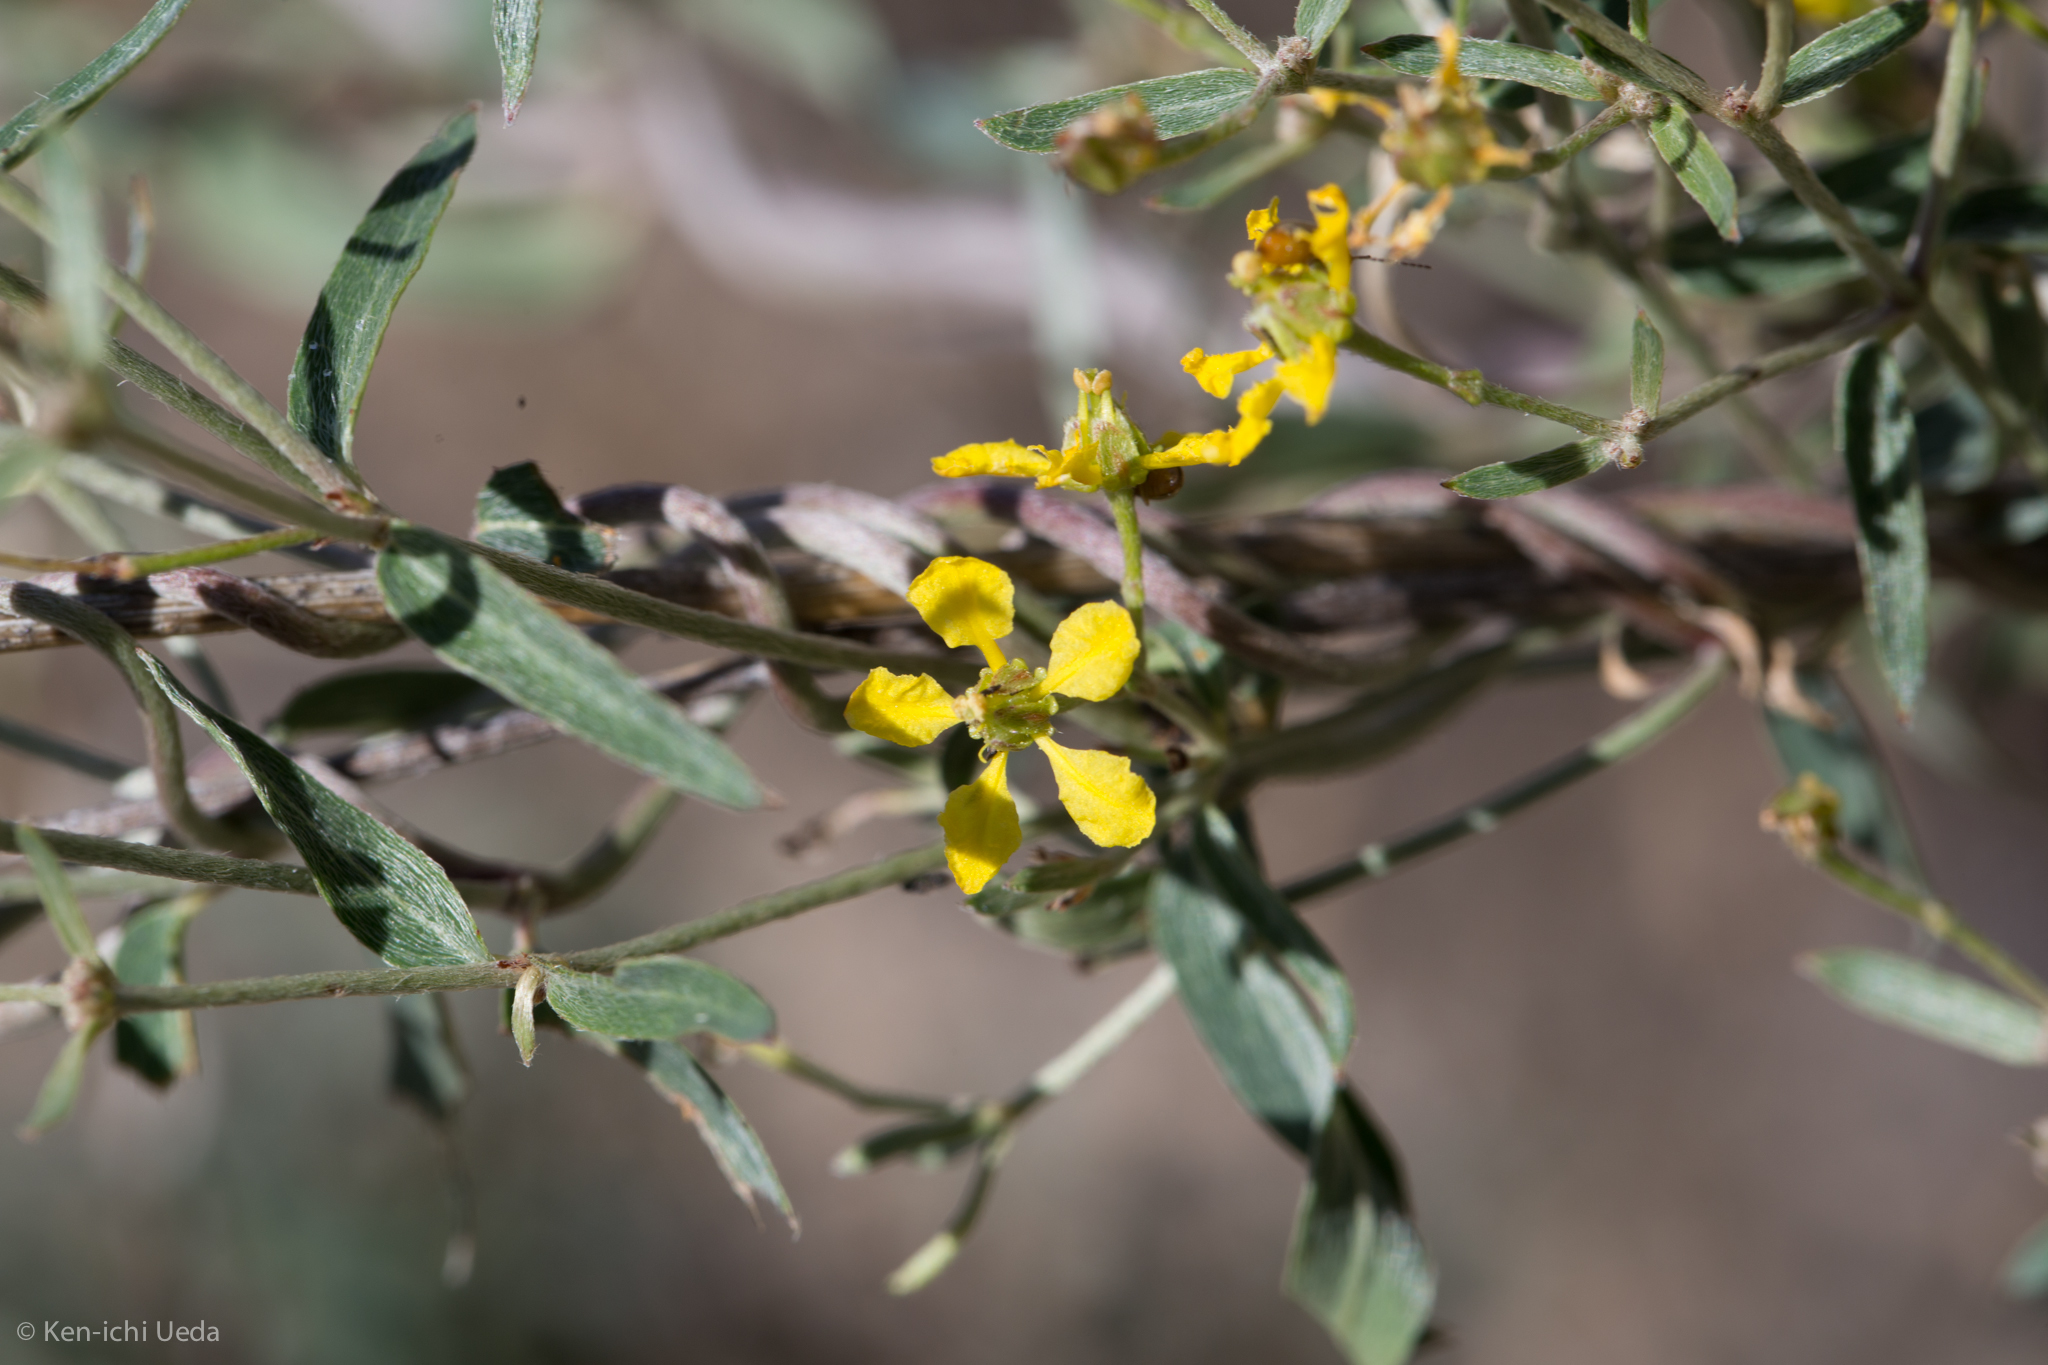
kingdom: Plantae
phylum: Tracheophyta
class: Magnoliopsida
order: Malpighiales
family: Malpighiaceae
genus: Cottsia
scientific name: Cottsia gracilis
